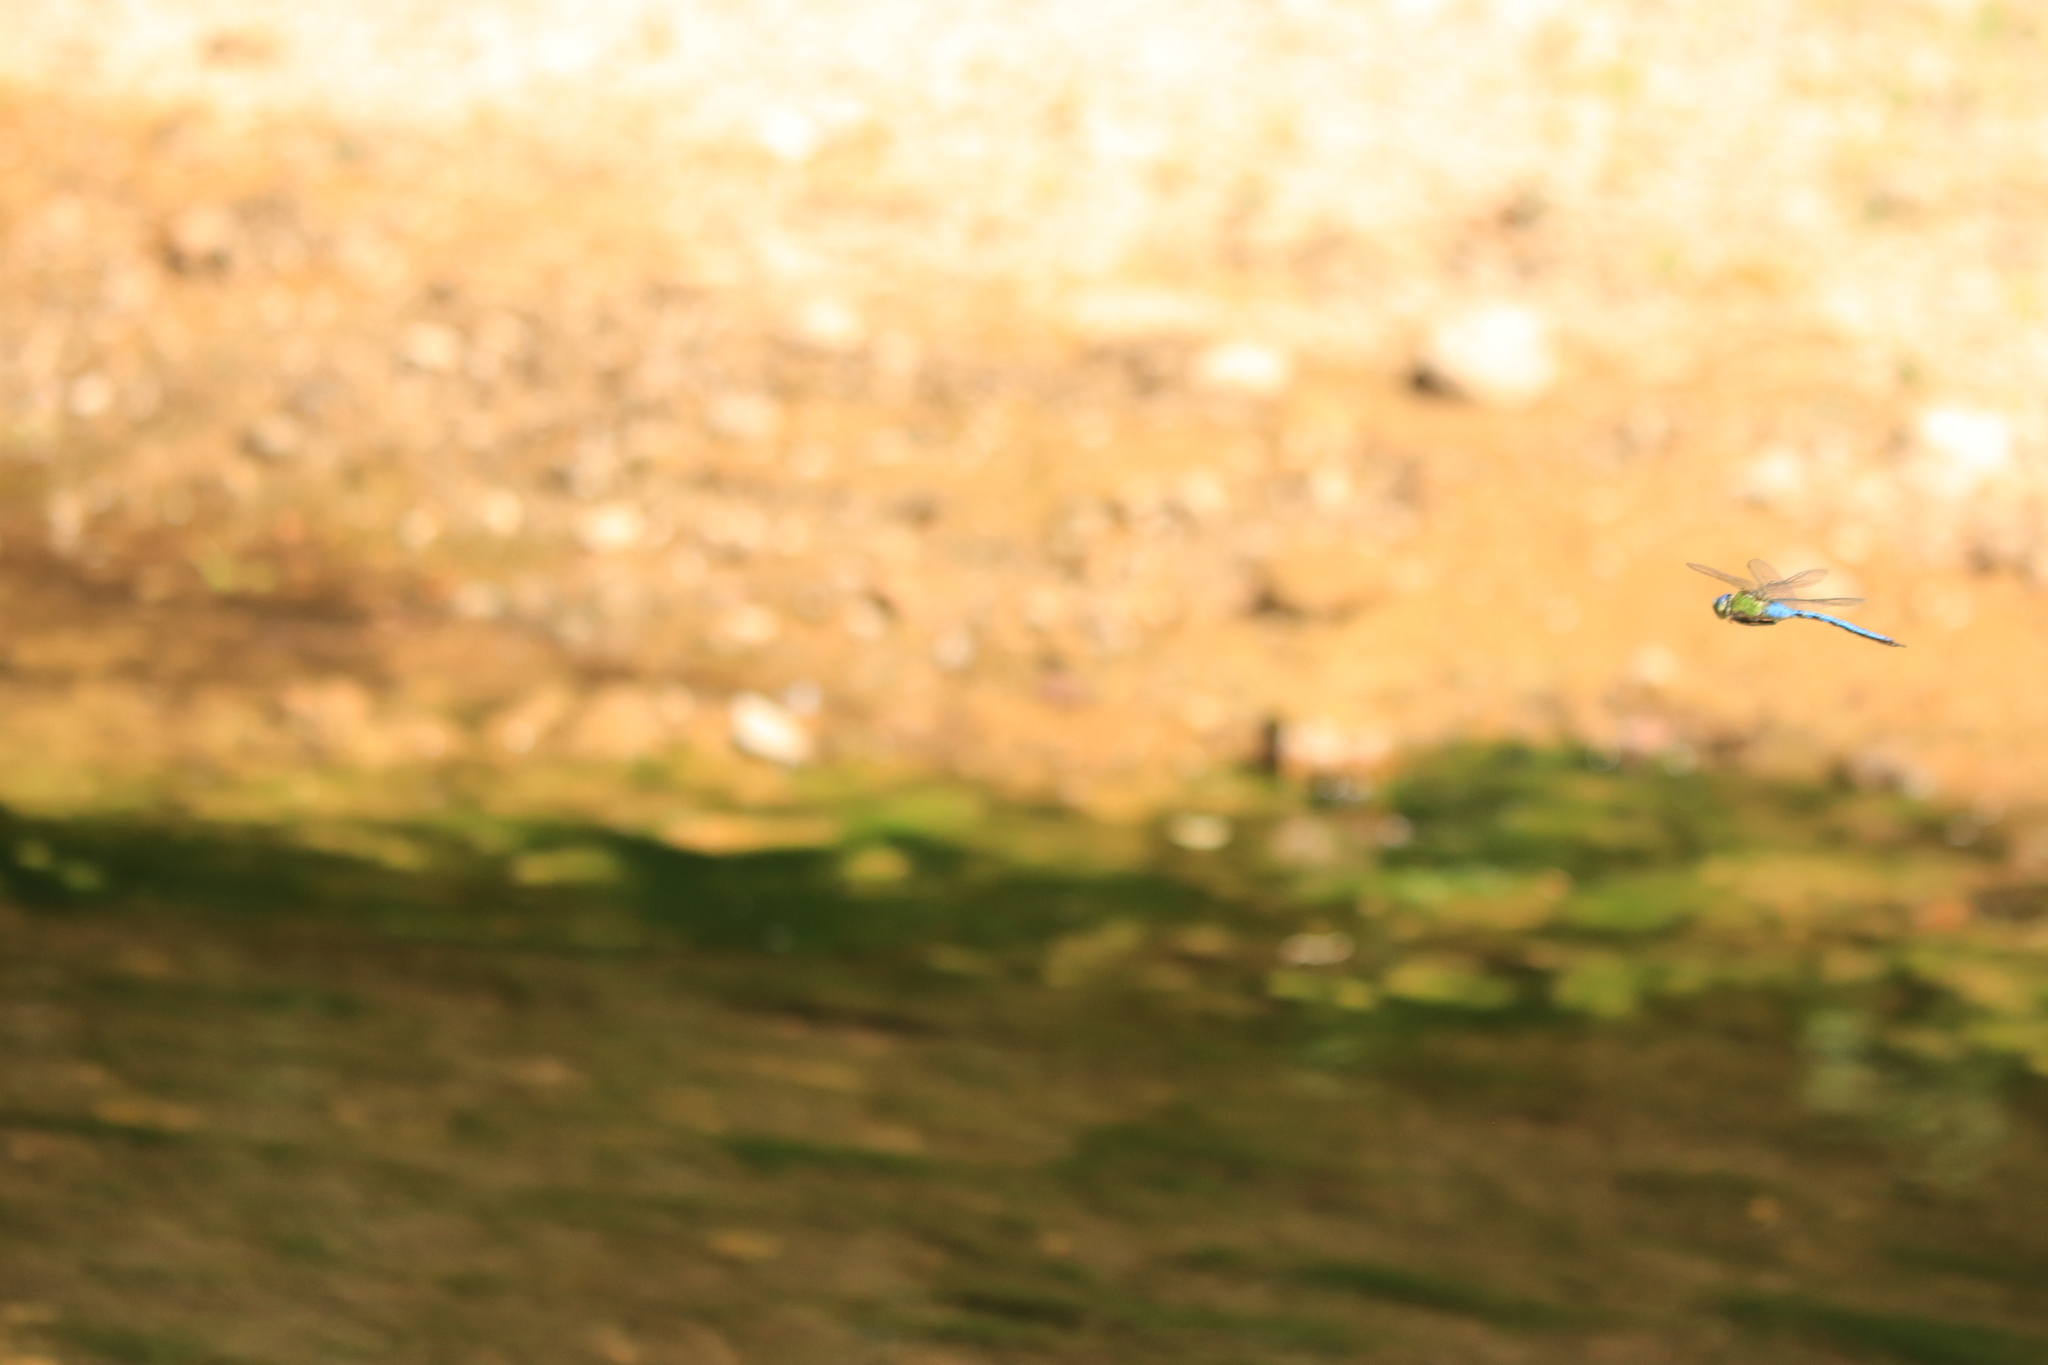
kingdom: Animalia
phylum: Arthropoda
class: Insecta
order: Odonata
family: Aeshnidae
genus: Anax
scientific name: Anax imperator
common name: Emperor dragonfly
